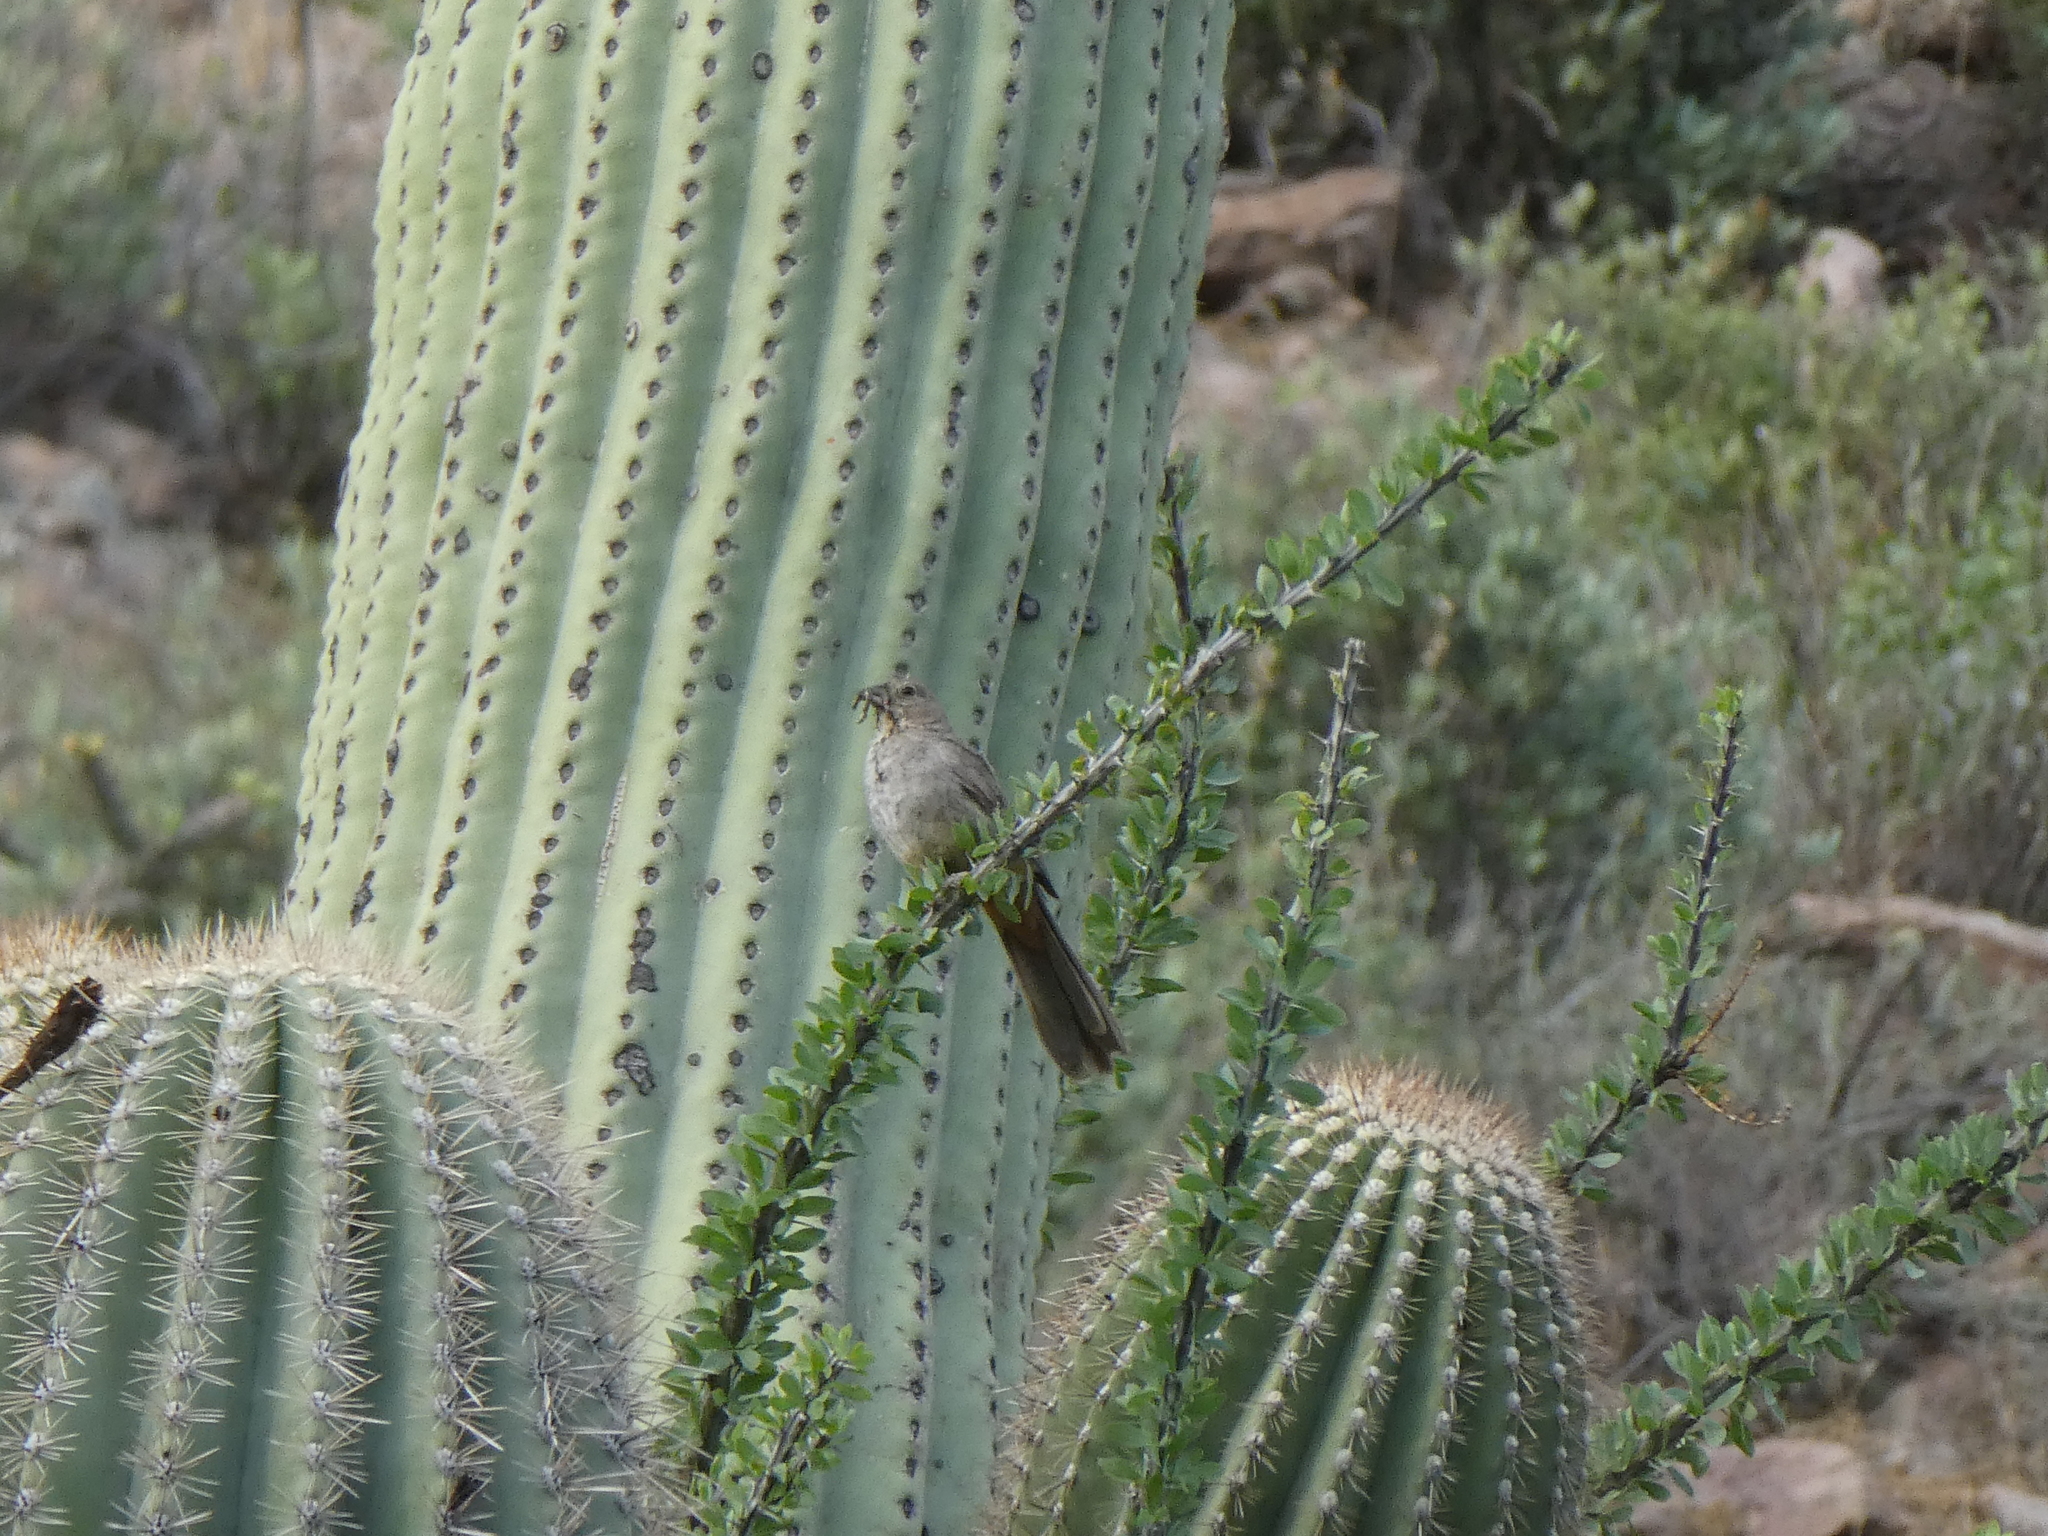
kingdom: Animalia
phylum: Chordata
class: Aves
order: Passeriformes
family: Passerellidae
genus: Melozone
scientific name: Melozone fusca
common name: Canyon towhee
